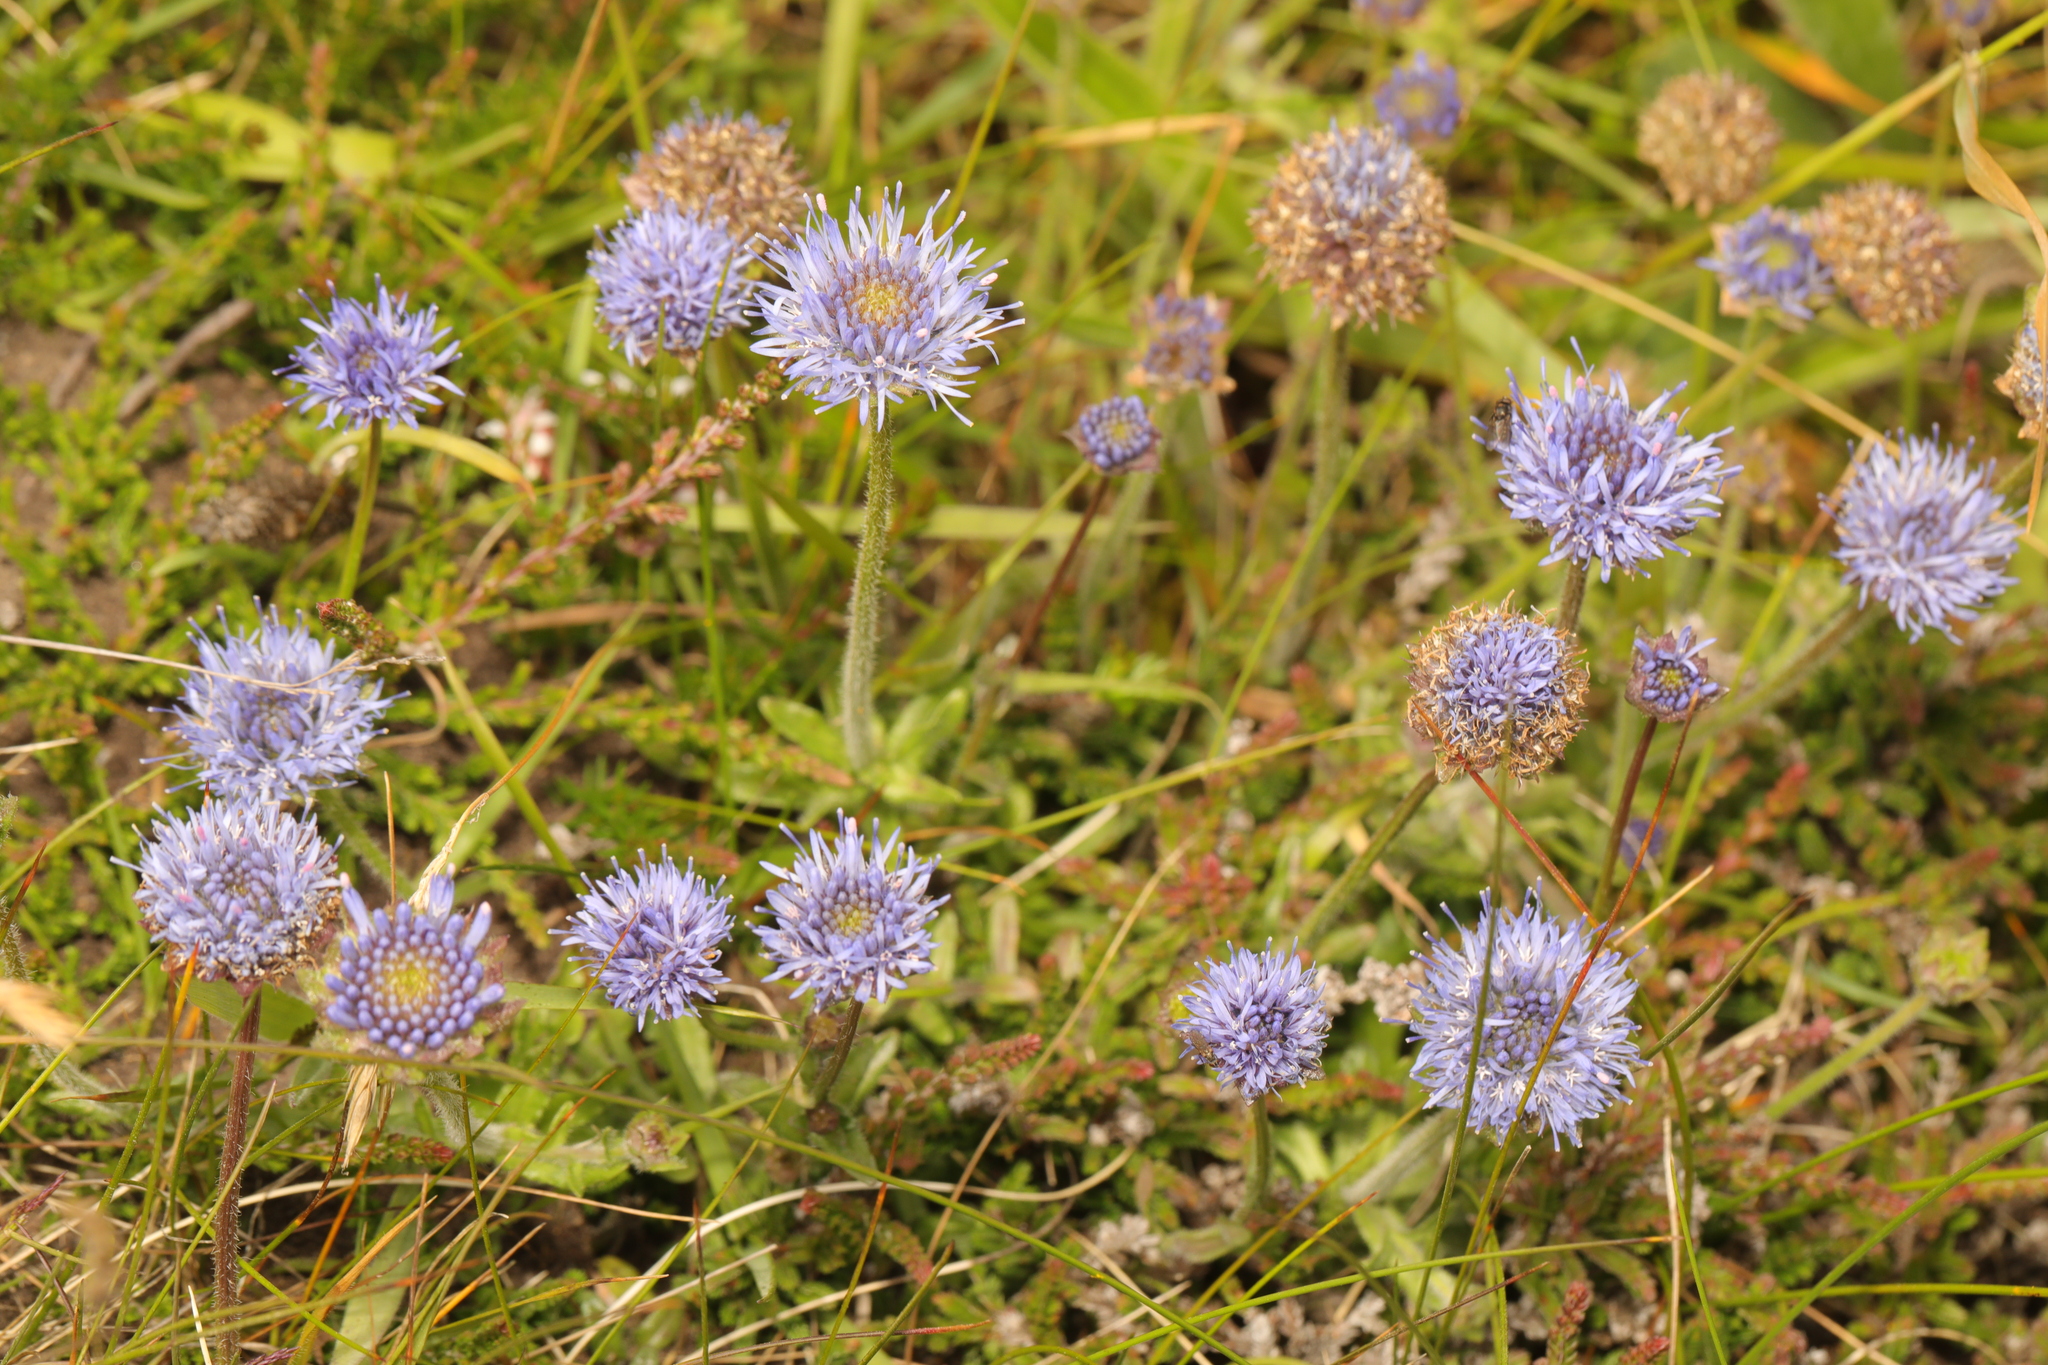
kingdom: Plantae
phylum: Tracheophyta
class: Magnoliopsida
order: Asterales
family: Campanulaceae
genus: Jasione
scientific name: Jasione montana
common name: Sheep's-bit
